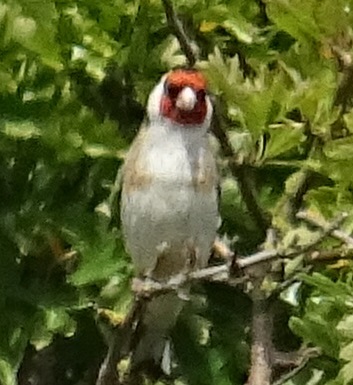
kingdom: Animalia
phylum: Chordata
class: Aves
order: Passeriformes
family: Fringillidae
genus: Carduelis
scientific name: Carduelis carduelis
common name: European goldfinch
